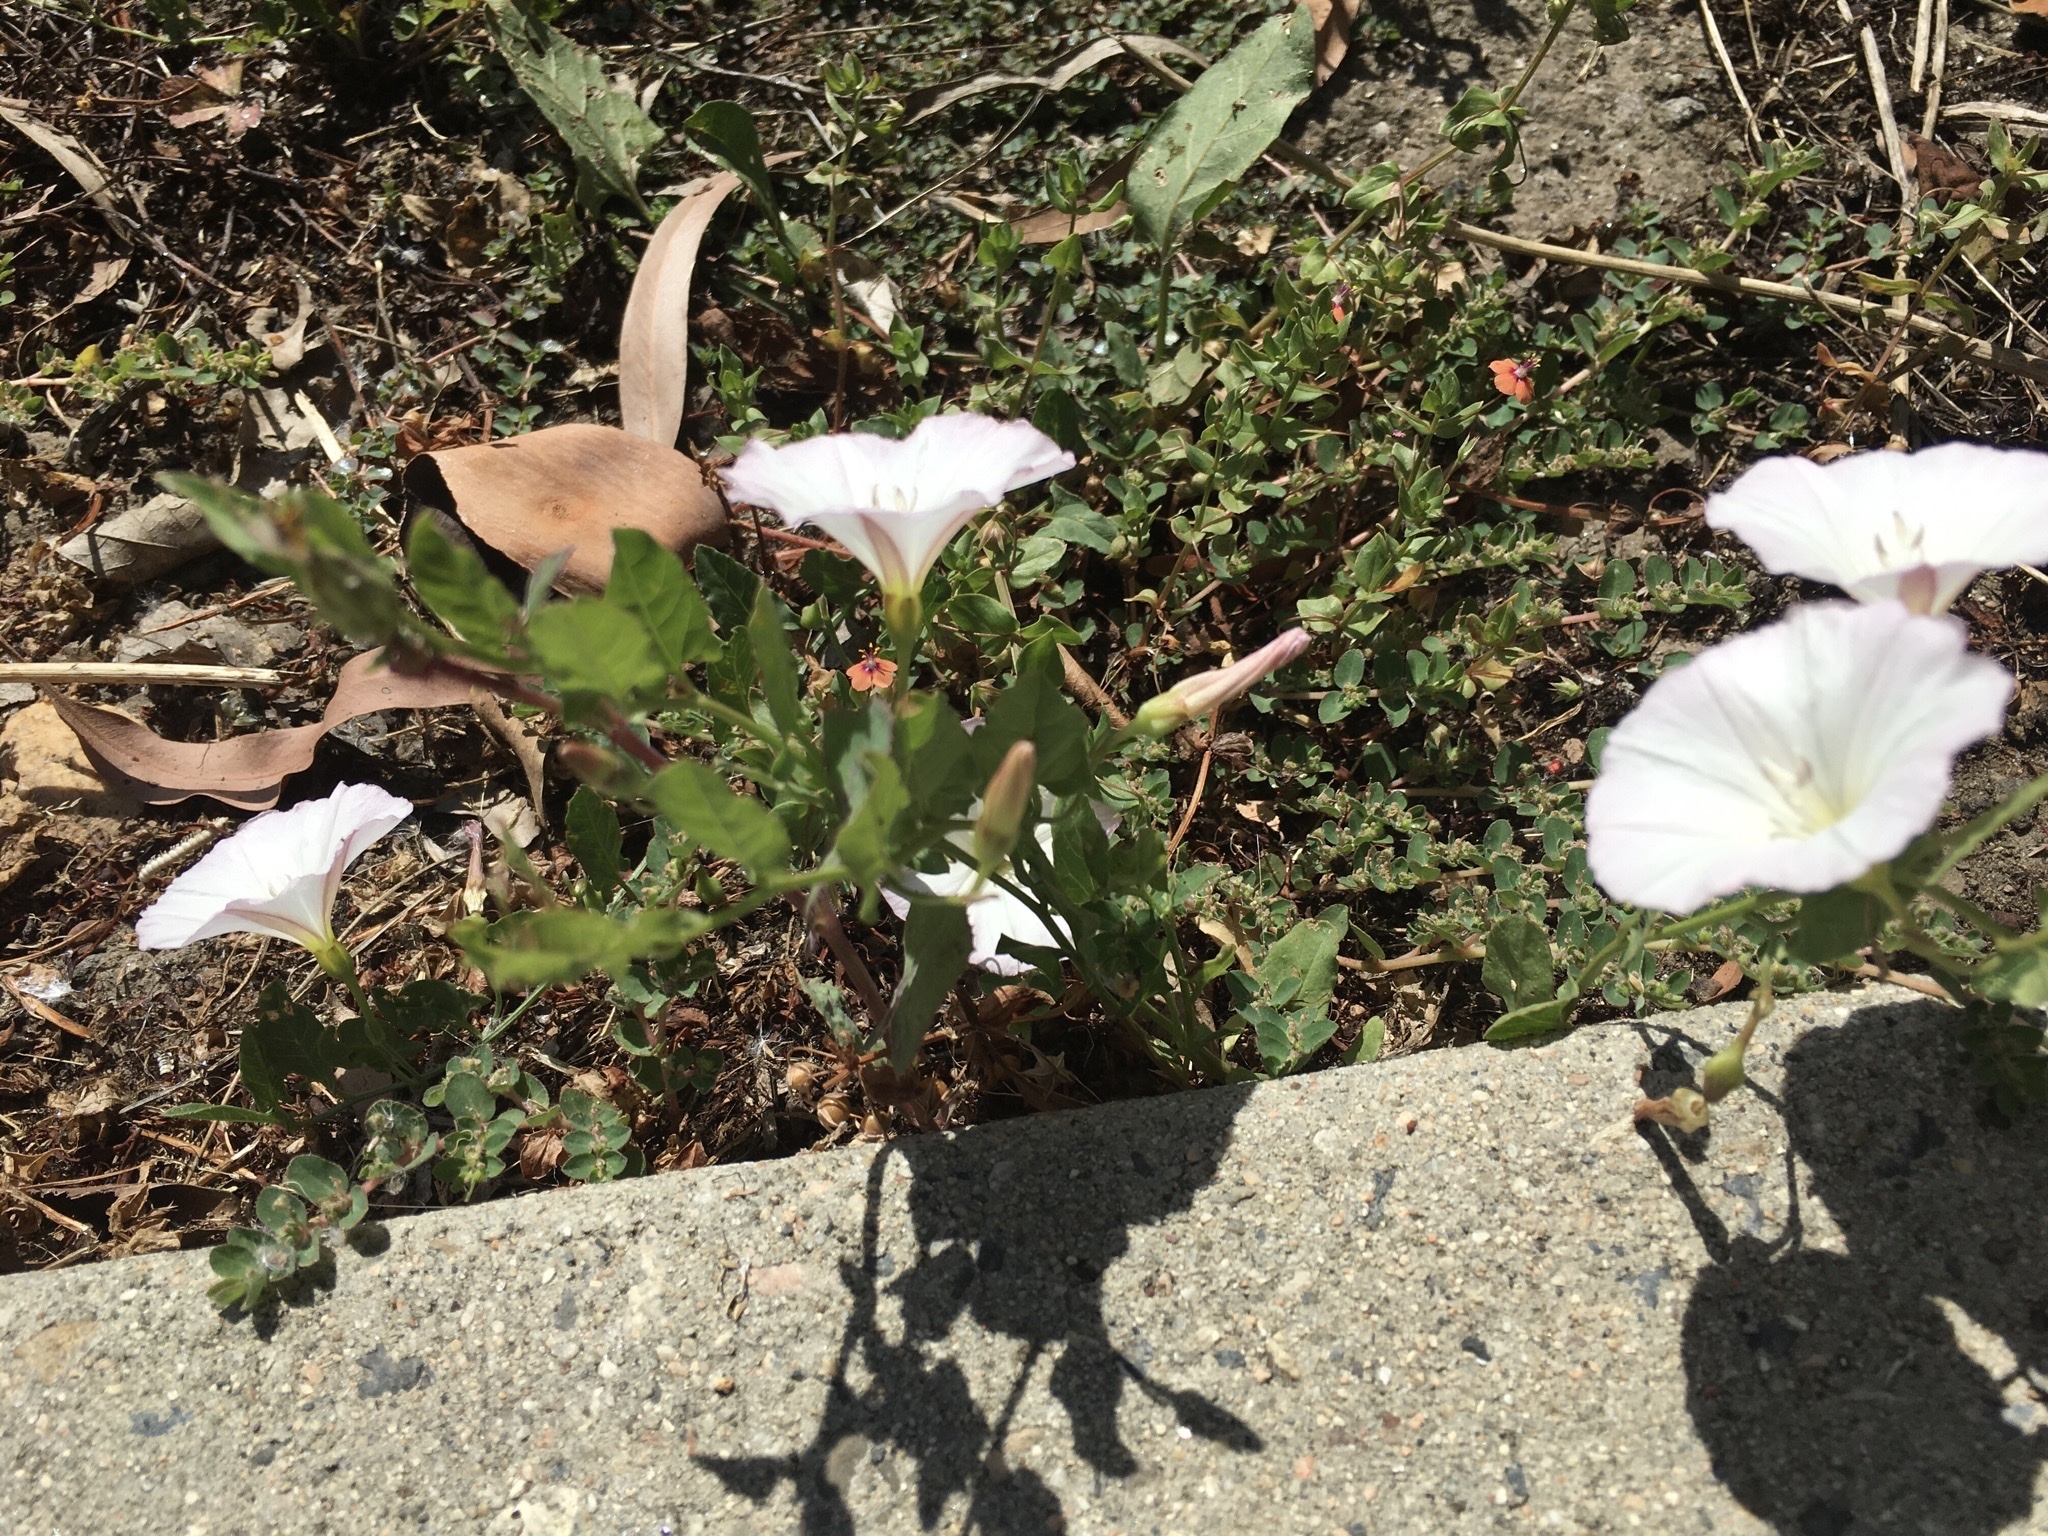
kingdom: Plantae
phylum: Tracheophyta
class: Magnoliopsida
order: Solanales
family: Convolvulaceae
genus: Convolvulus
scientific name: Convolvulus arvensis
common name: Field bindweed
